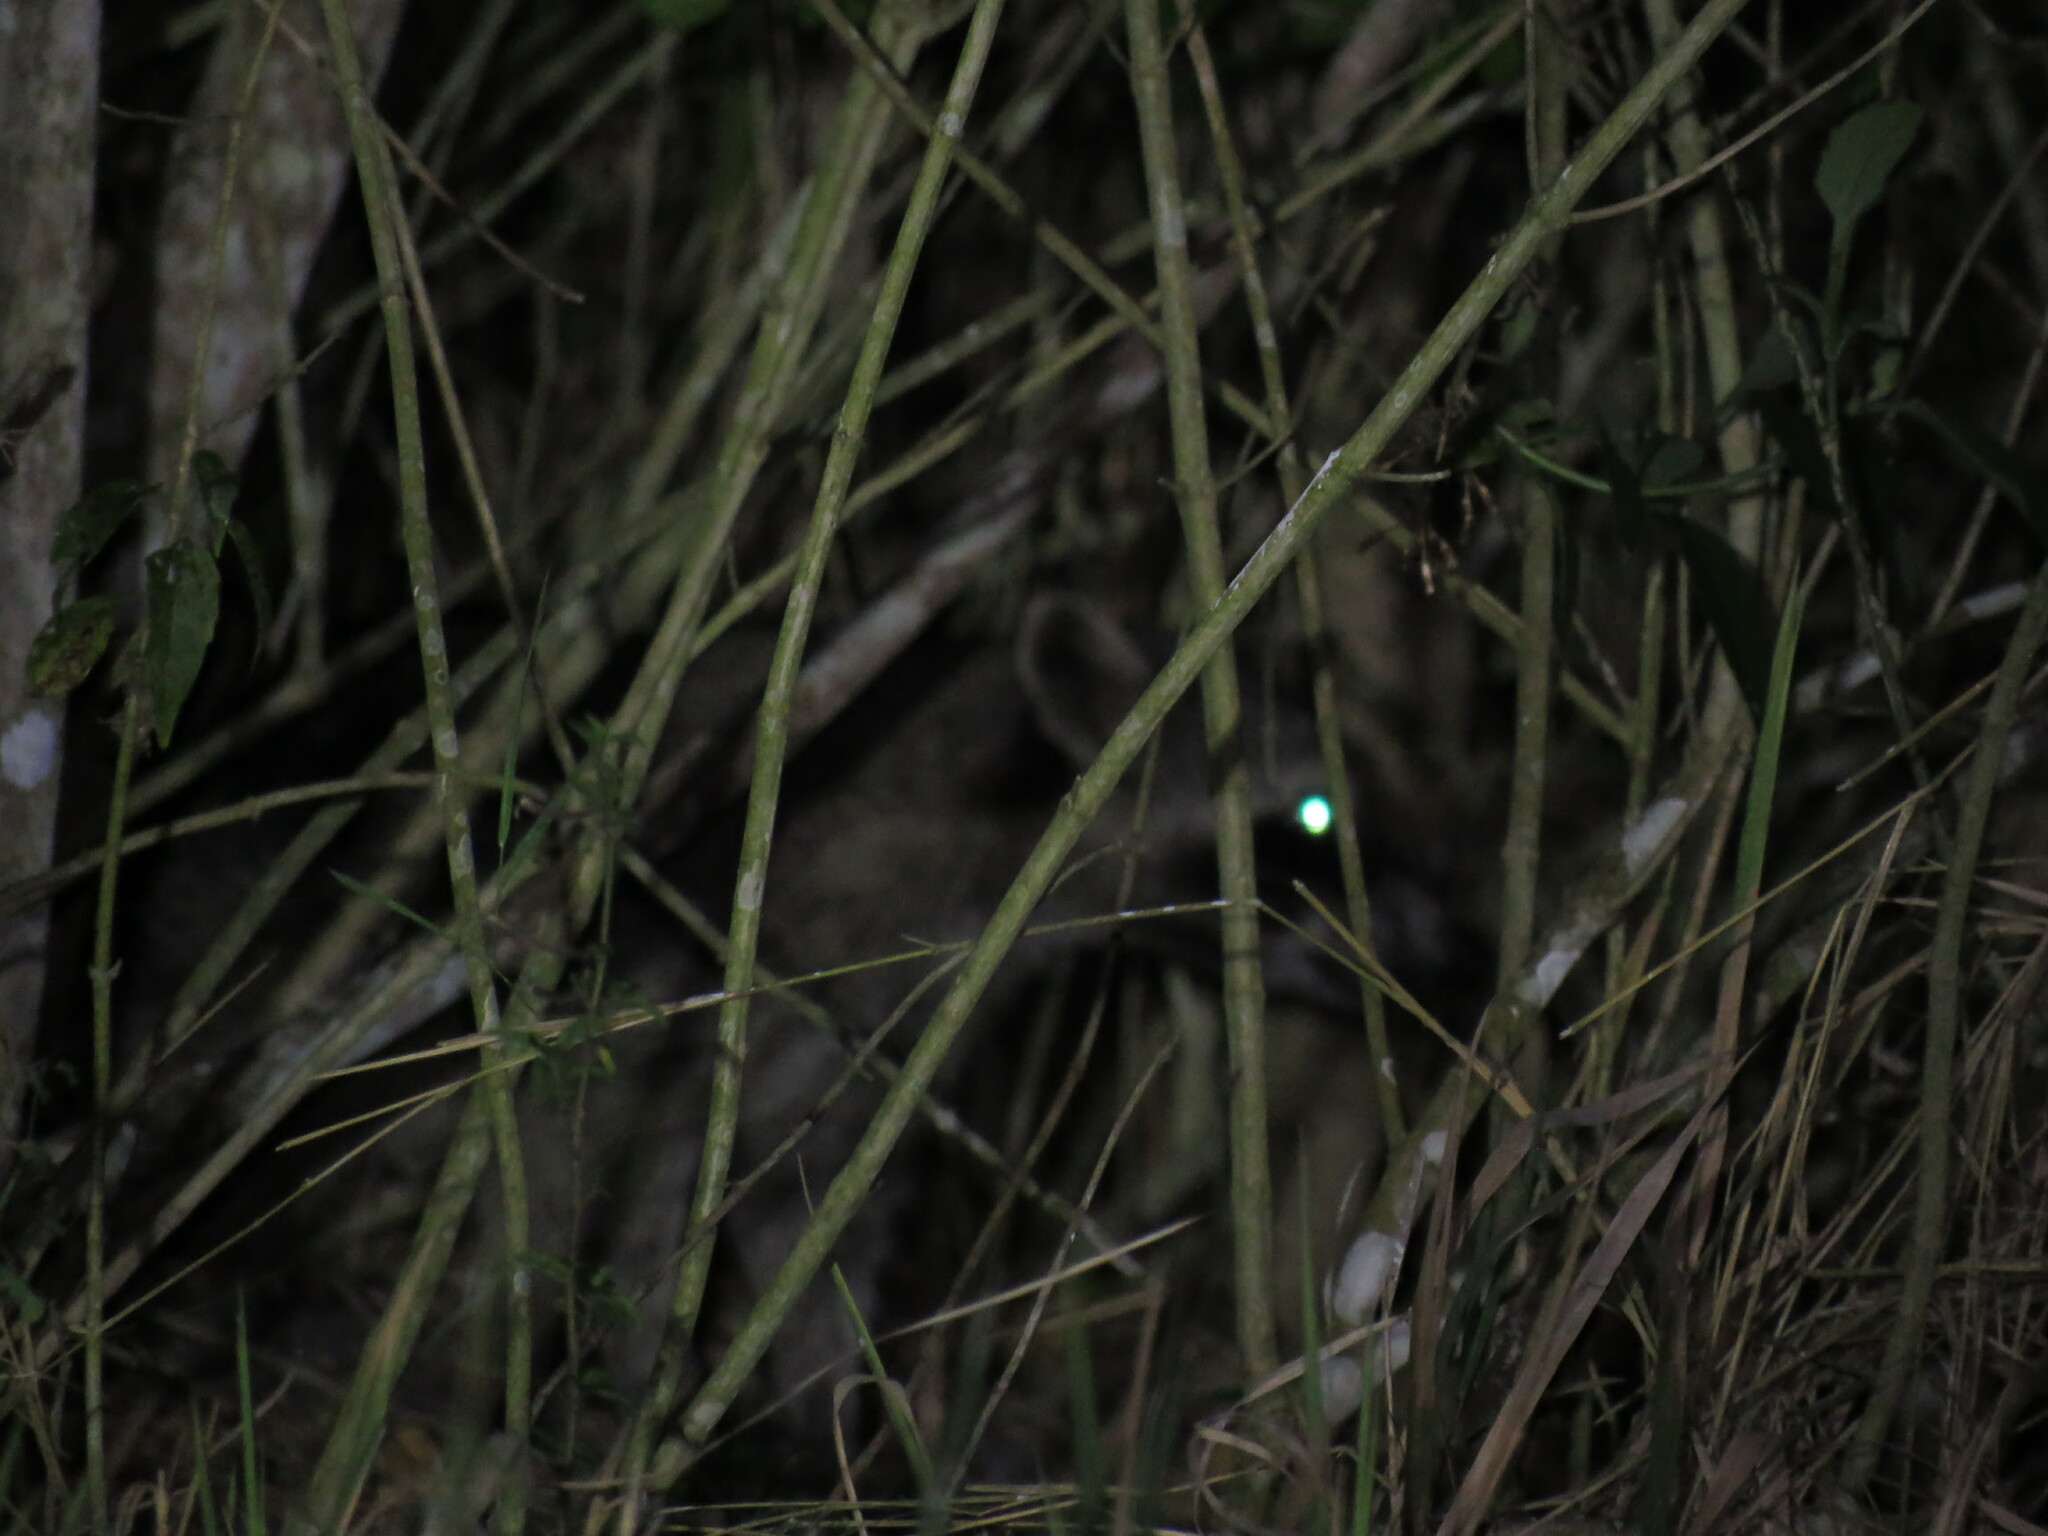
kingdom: Animalia
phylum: Chordata
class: Mammalia
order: Carnivora
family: Procyonidae
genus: Procyon
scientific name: Procyon lotor
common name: Raccoon
